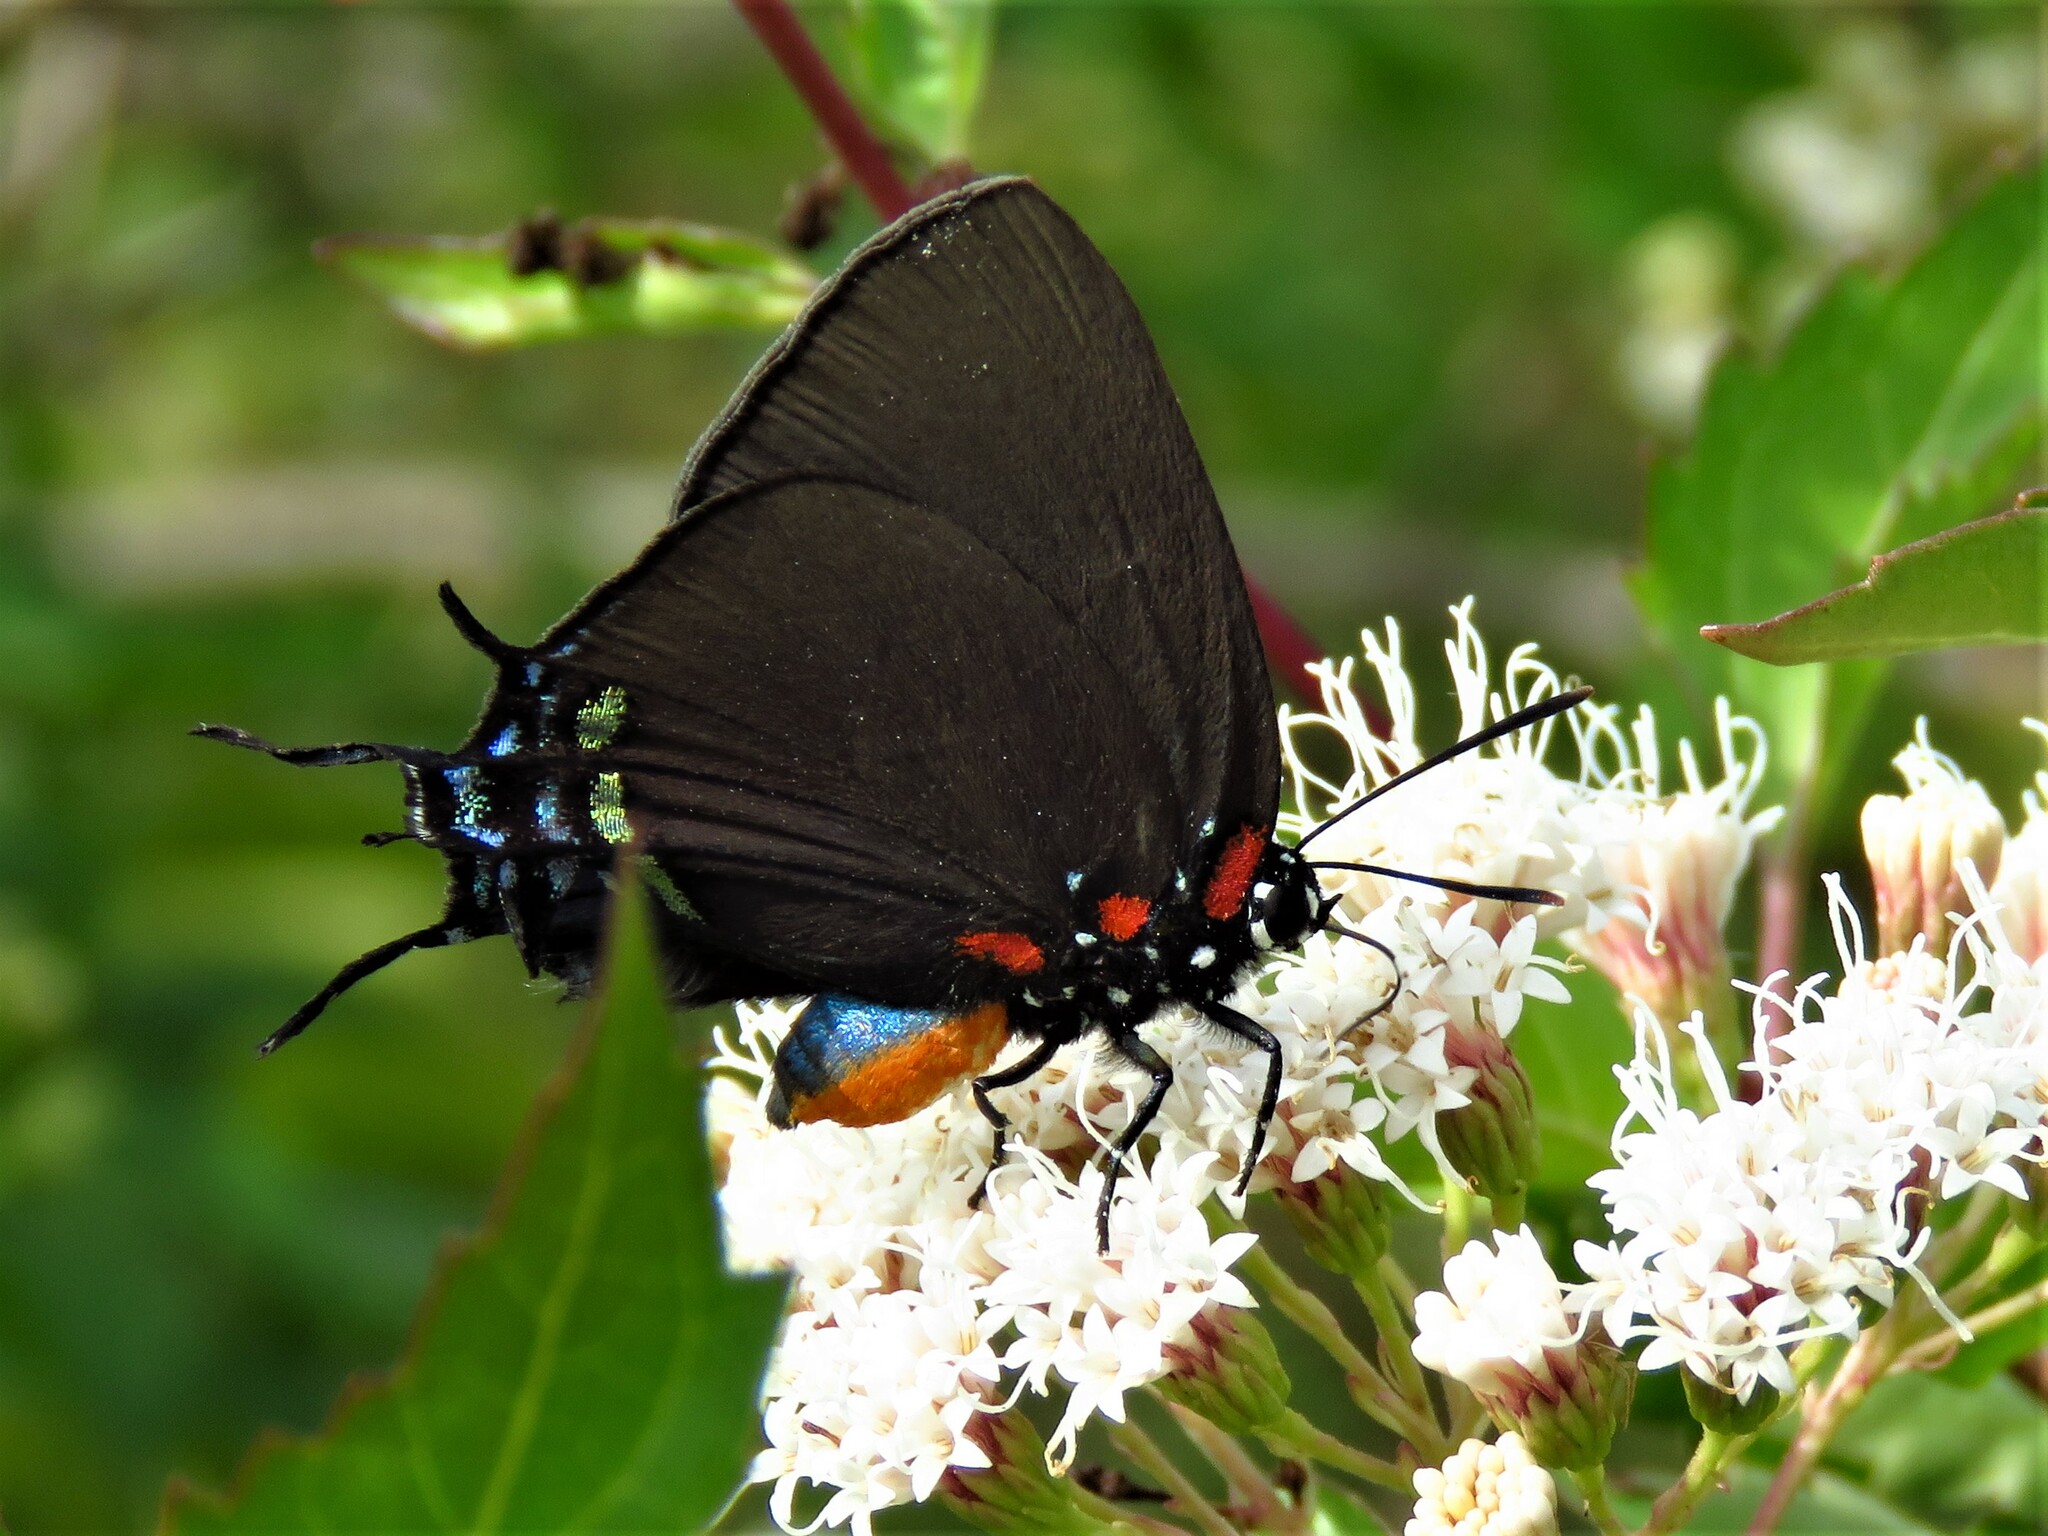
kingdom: Animalia
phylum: Arthropoda
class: Insecta
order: Lepidoptera
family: Lycaenidae
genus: Atlides
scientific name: Atlides halesus
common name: Great purple hairstreak
